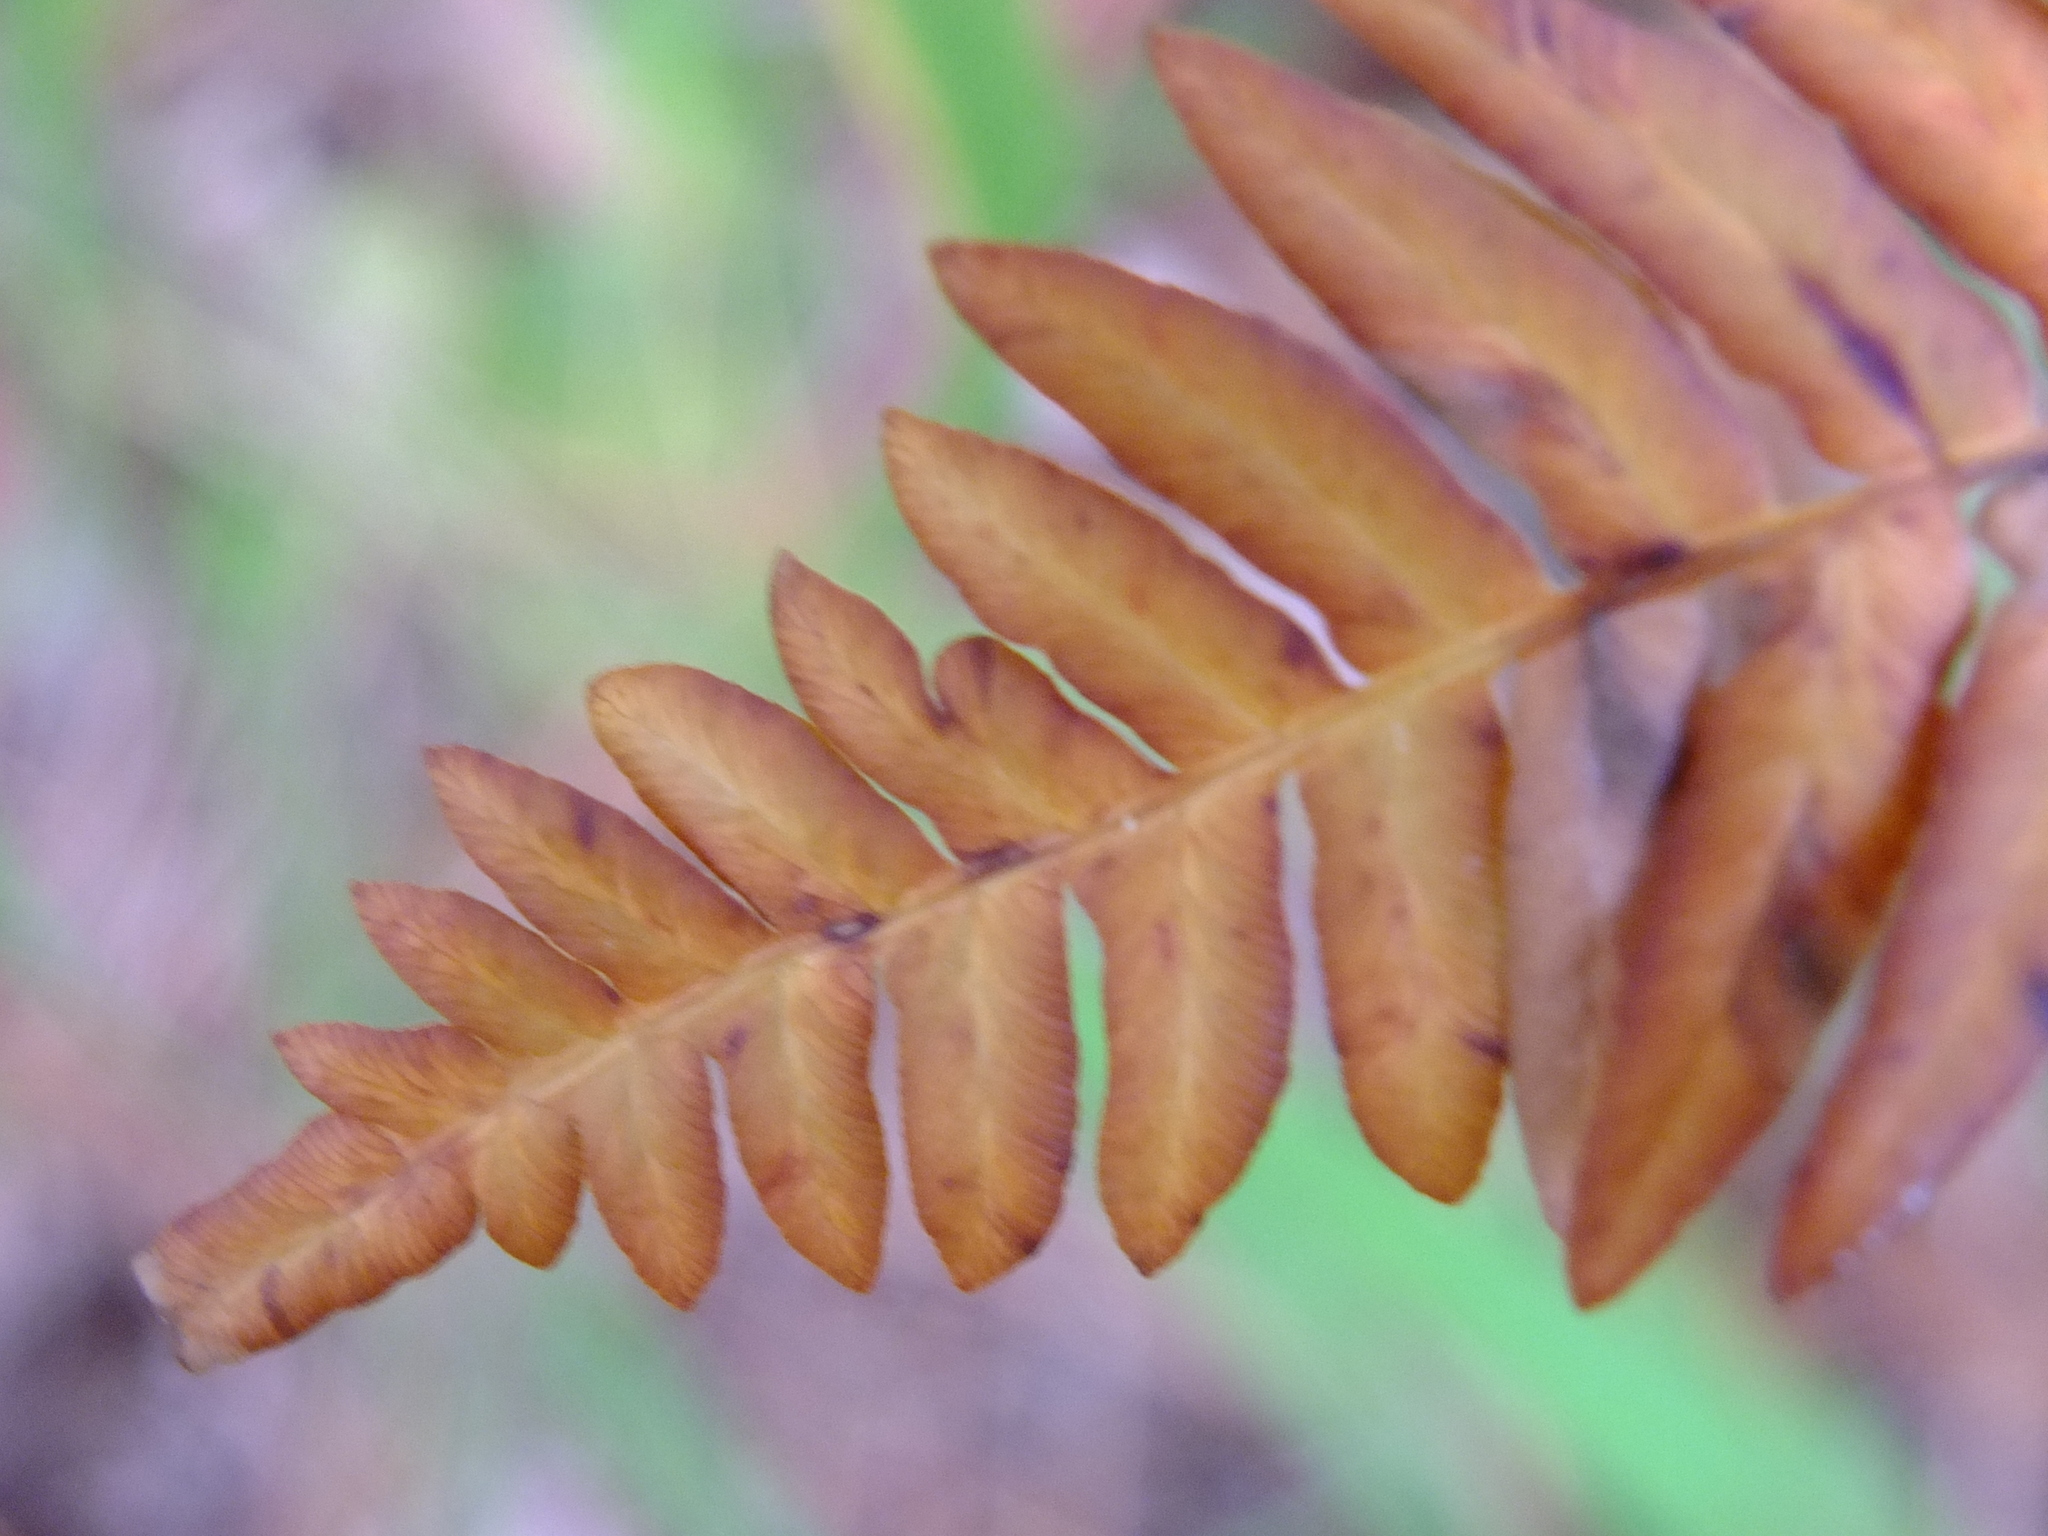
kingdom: Plantae
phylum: Tracheophyta
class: Polypodiopsida
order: Polypodiales
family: Dennstaedtiaceae
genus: Pteridium
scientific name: Pteridium aquilinum
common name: Bracken
